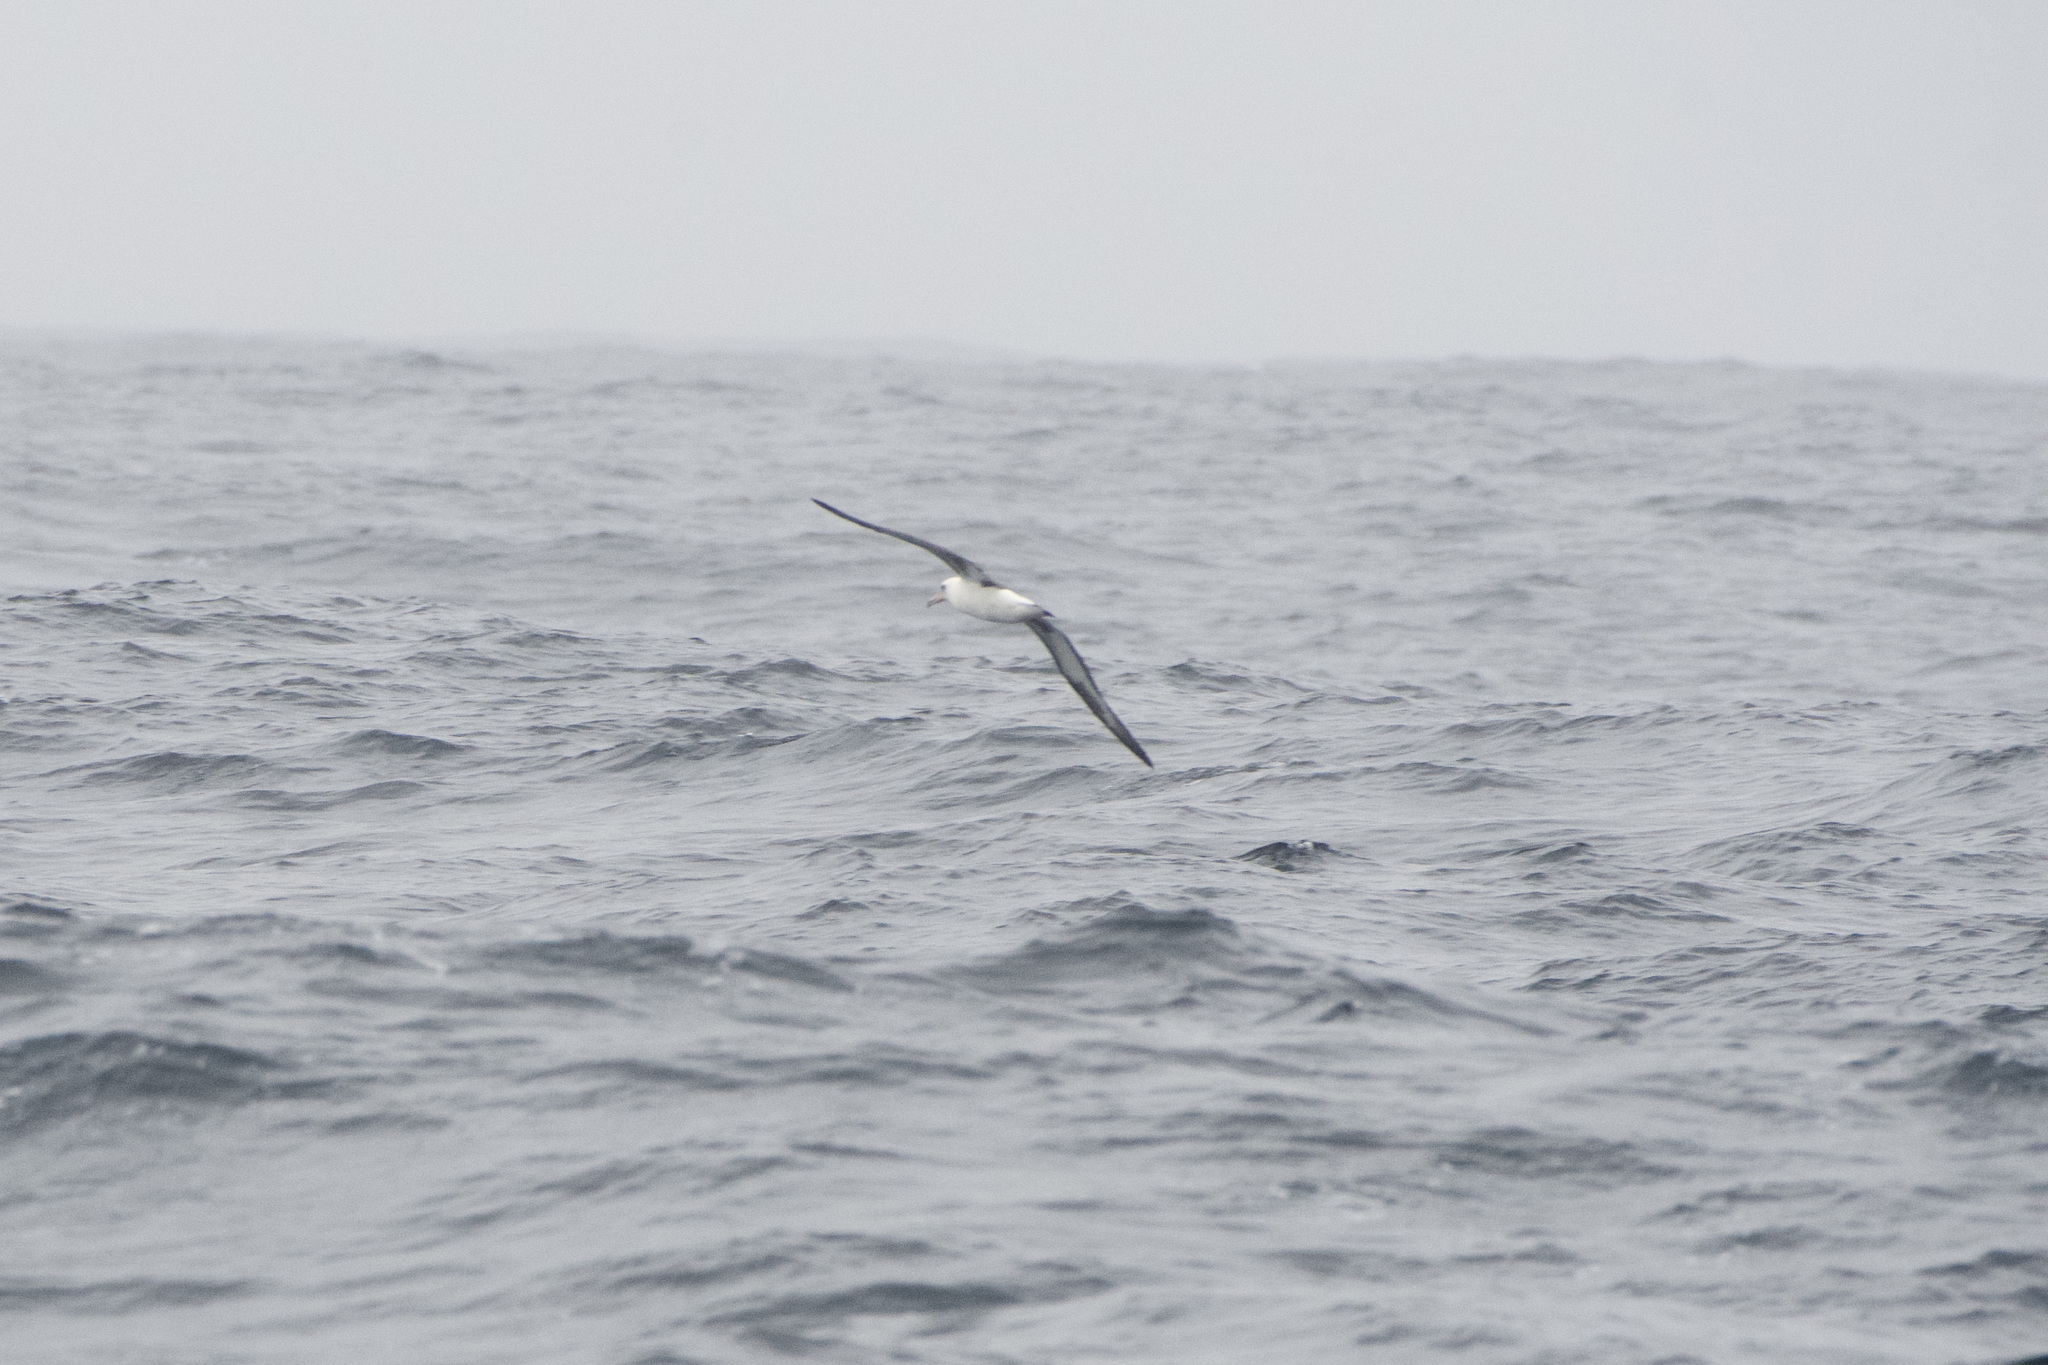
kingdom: Animalia
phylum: Chordata
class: Aves
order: Procellariiformes
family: Diomedeidae
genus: Phoebastria
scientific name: Phoebastria immutabilis
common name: Laysan albatross
